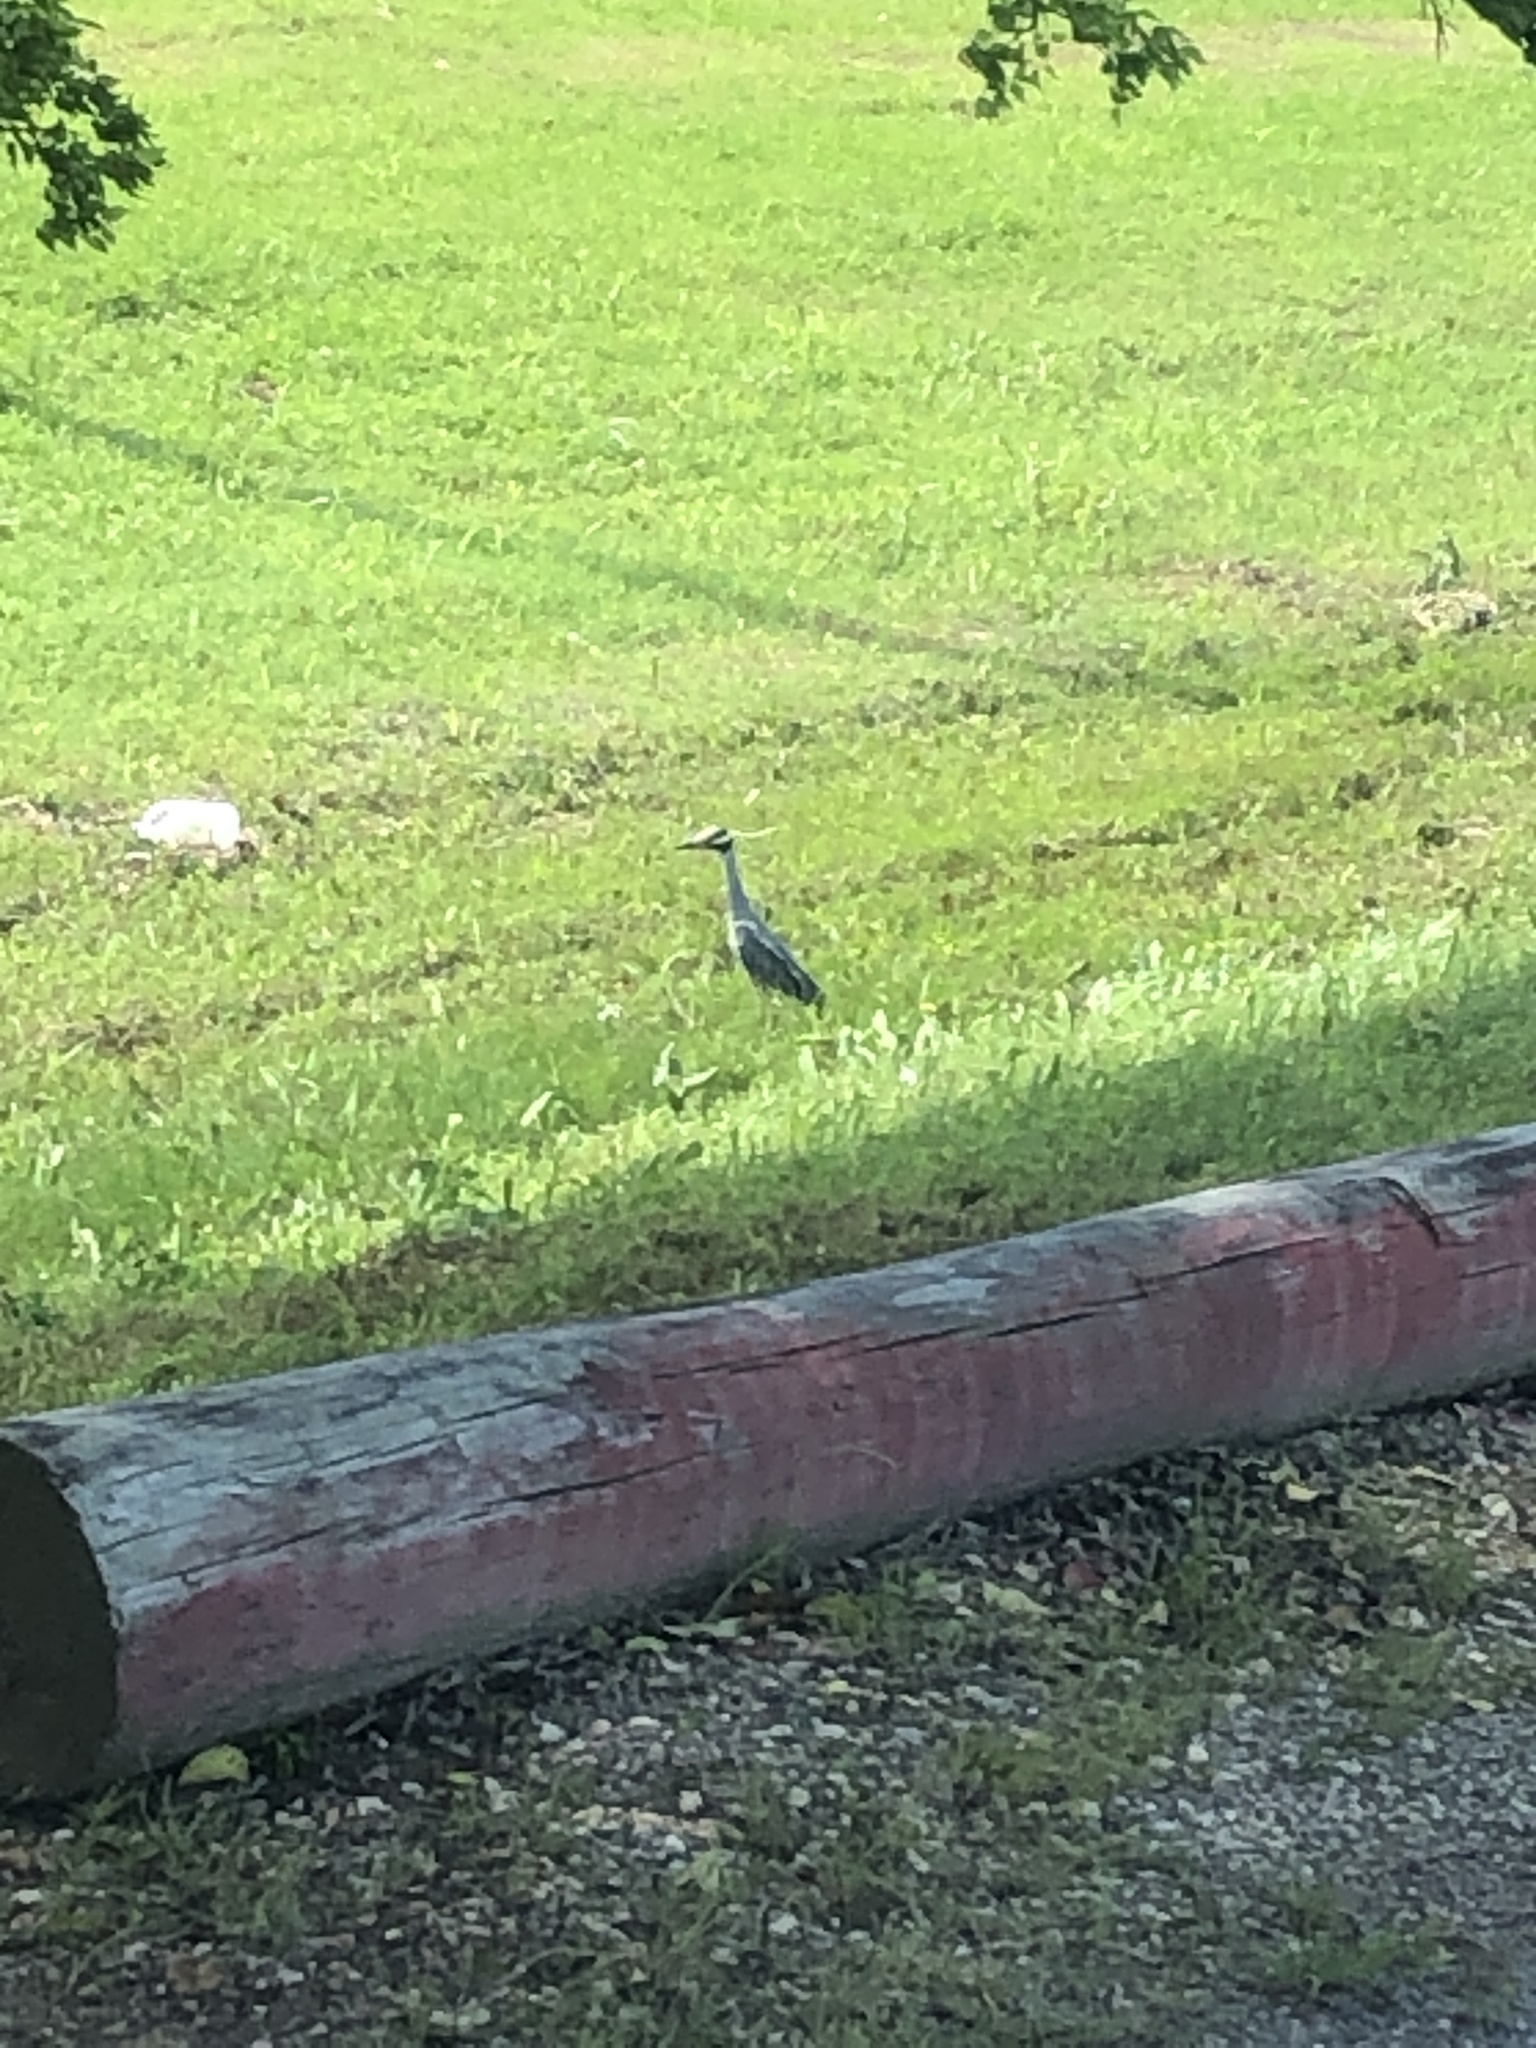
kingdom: Animalia
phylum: Chordata
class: Aves
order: Pelecaniformes
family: Ardeidae
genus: Nyctanassa
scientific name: Nyctanassa violacea
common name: Yellow-crowned night heron
